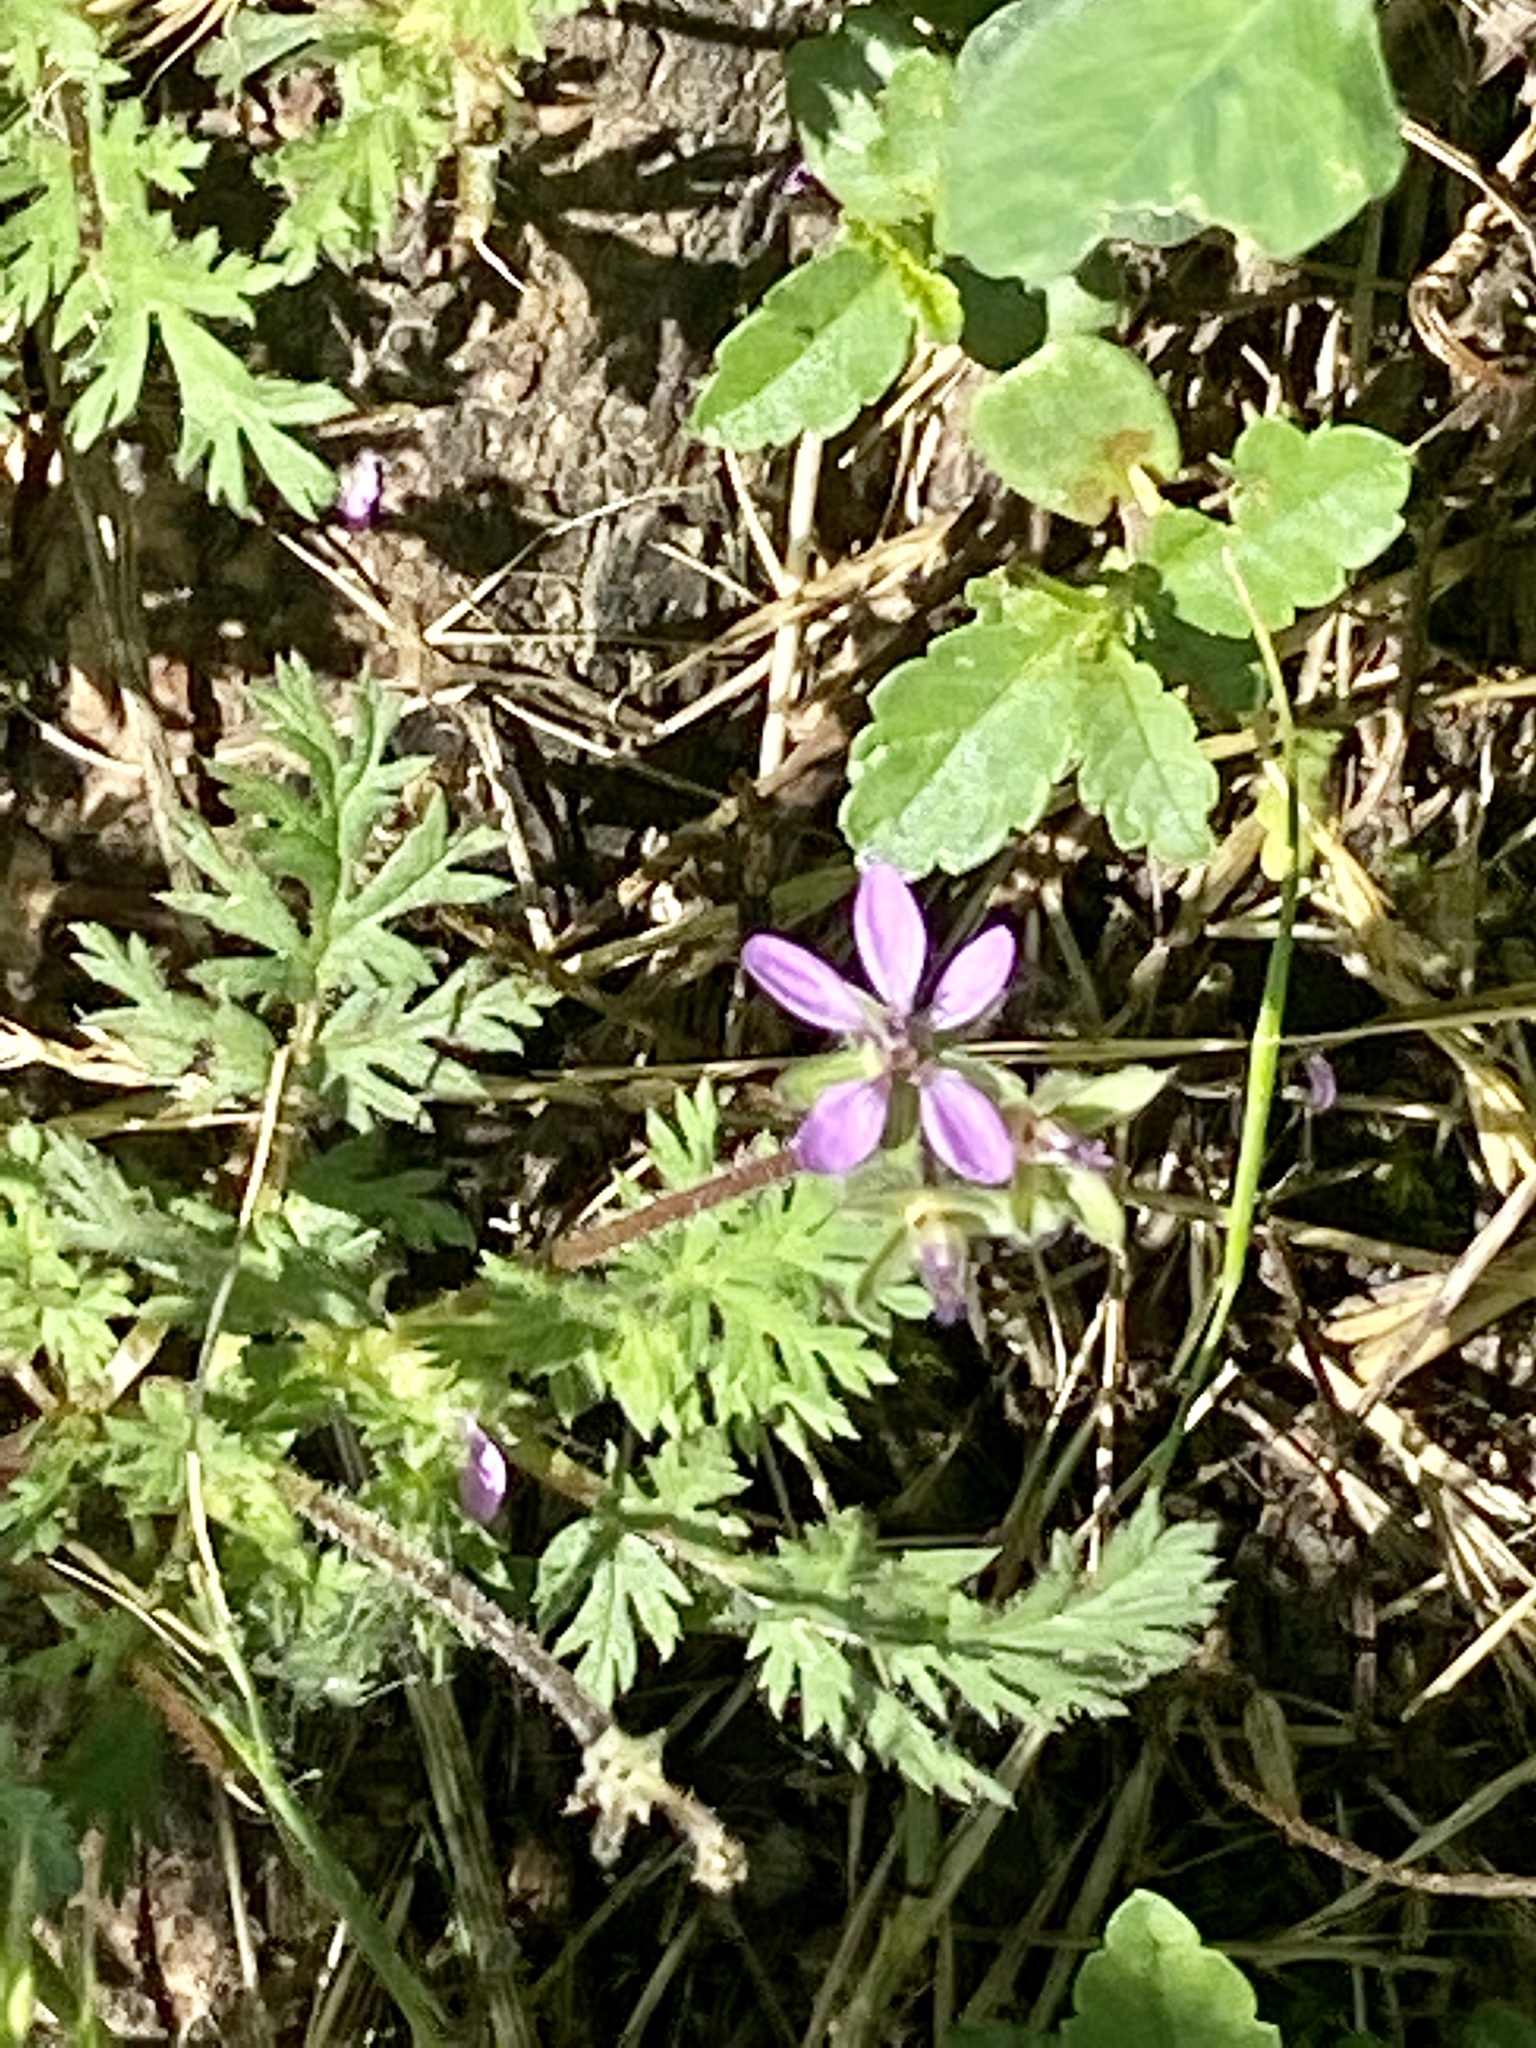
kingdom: Plantae
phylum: Tracheophyta
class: Magnoliopsida
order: Geraniales
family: Geraniaceae
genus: Erodium
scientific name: Erodium cicutarium
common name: Common stork's-bill
